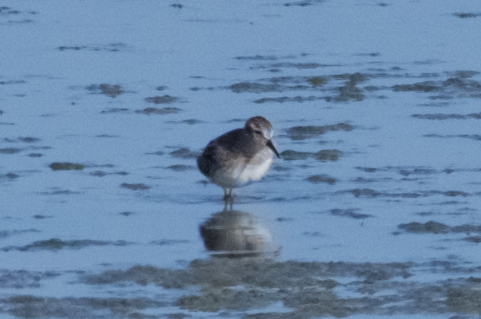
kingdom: Animalia
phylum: Chordata
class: Aves
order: Charadriiformes
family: Scolopacidae
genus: Calidris
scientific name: Calidris minutilla
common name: Least sandpiper
